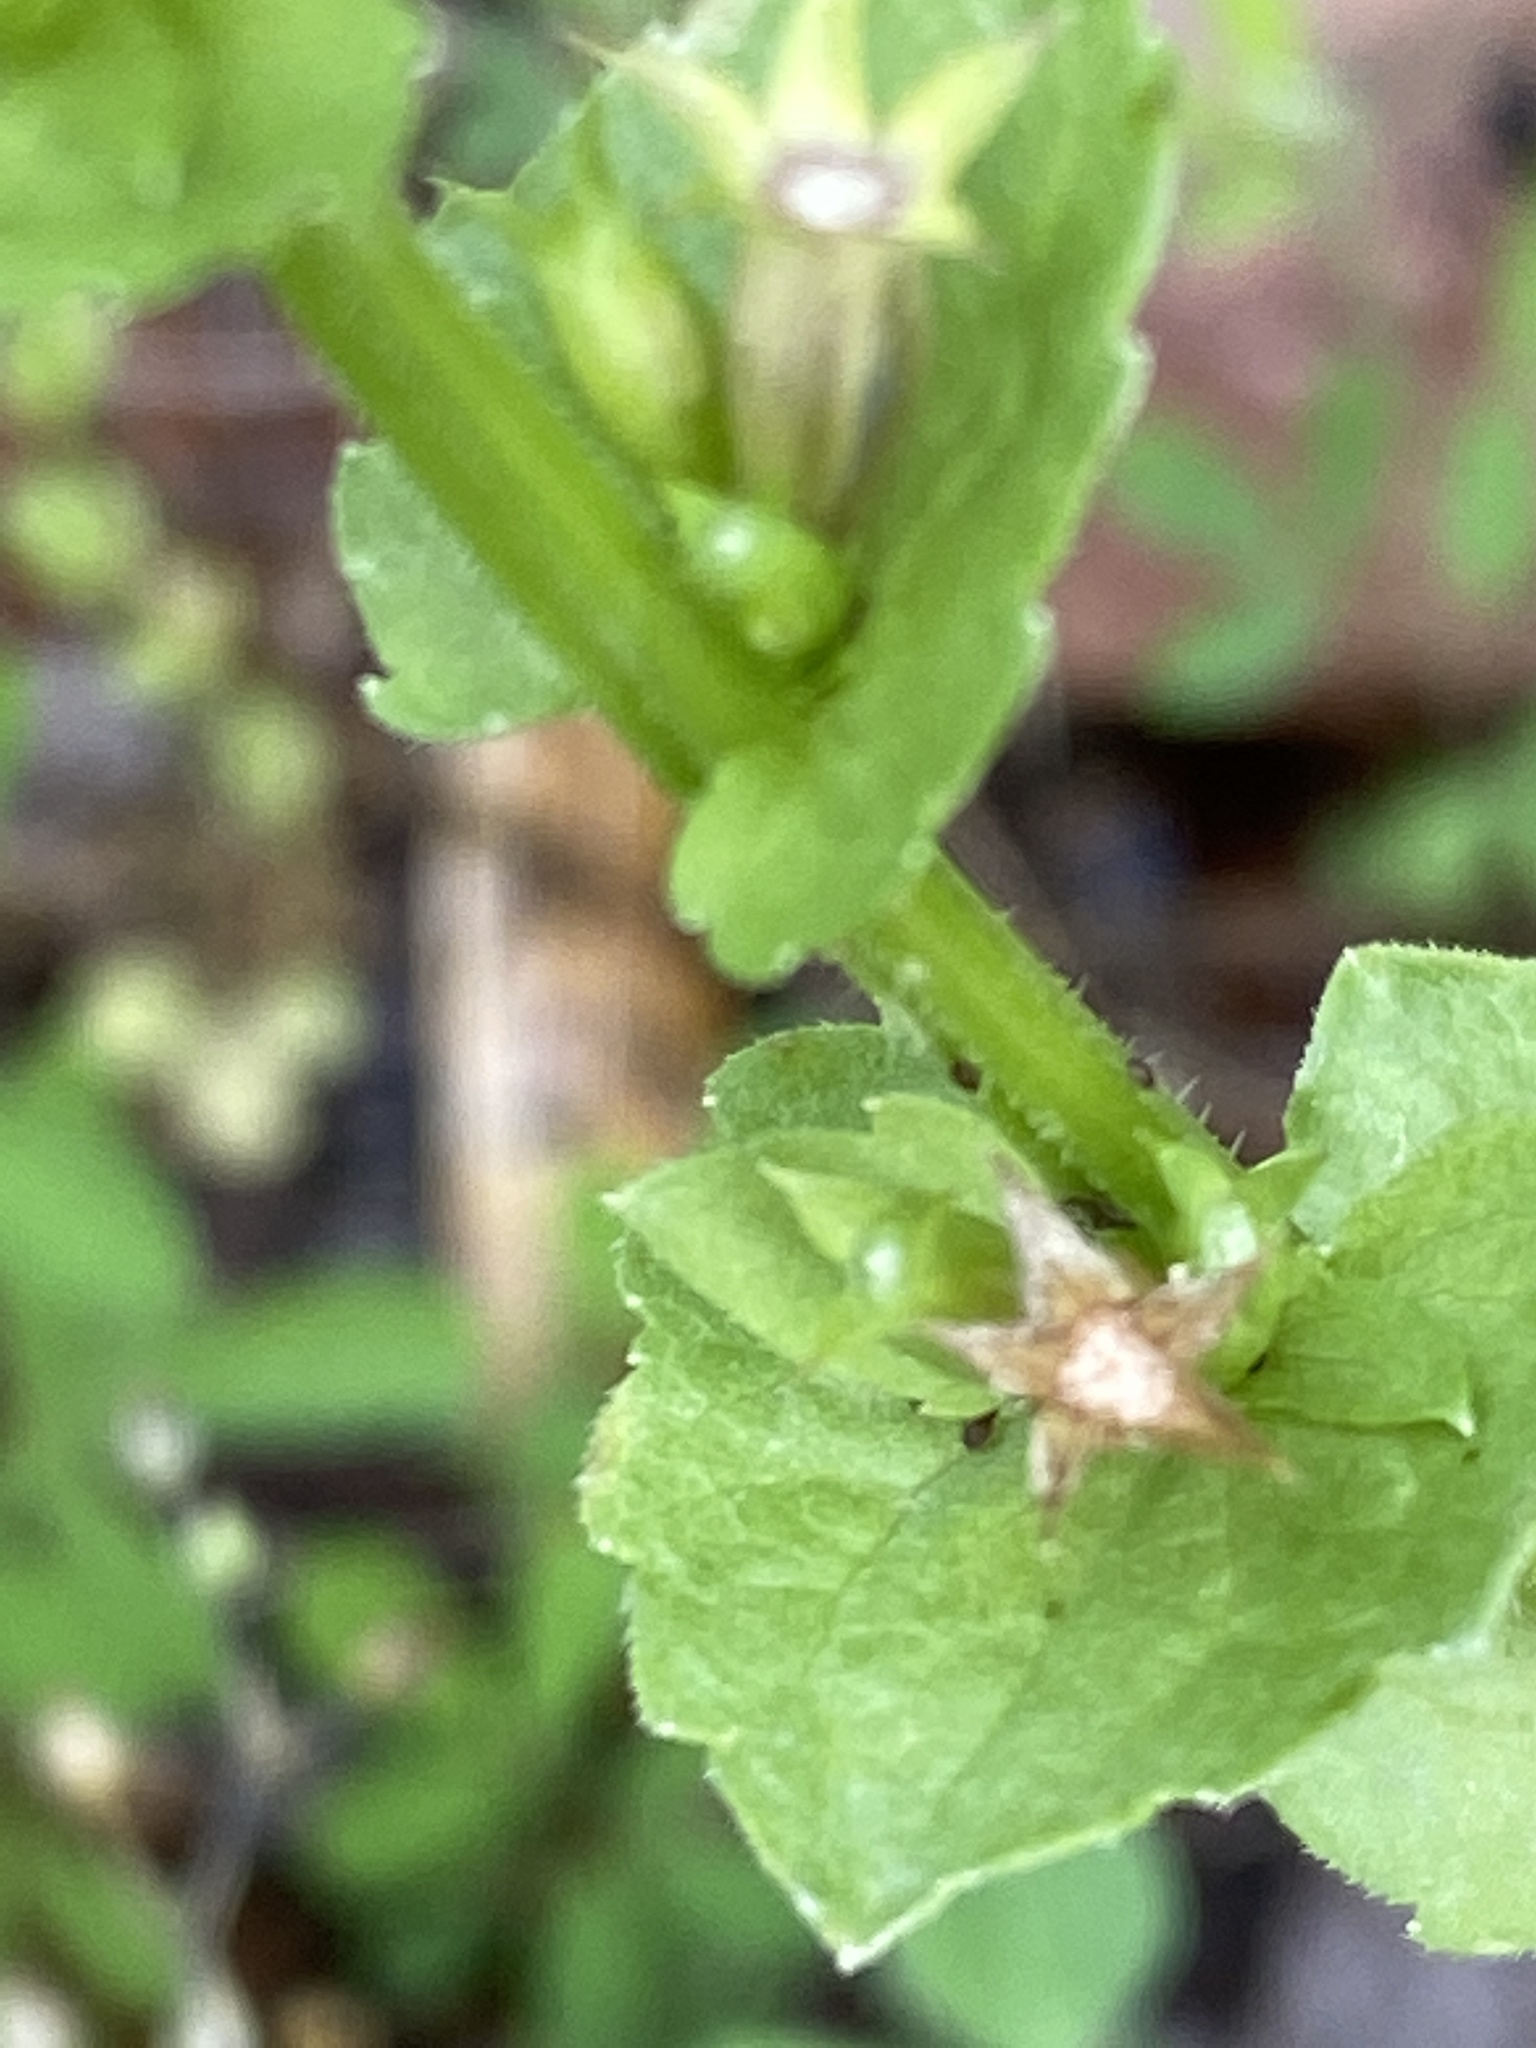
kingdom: Plantae
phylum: Tracheophyta
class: Magnoliopsida
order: Asterales
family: Campanulaceae
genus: Triodanis
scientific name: Triodanis perfoliata
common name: Clasping venus' looking-glass
